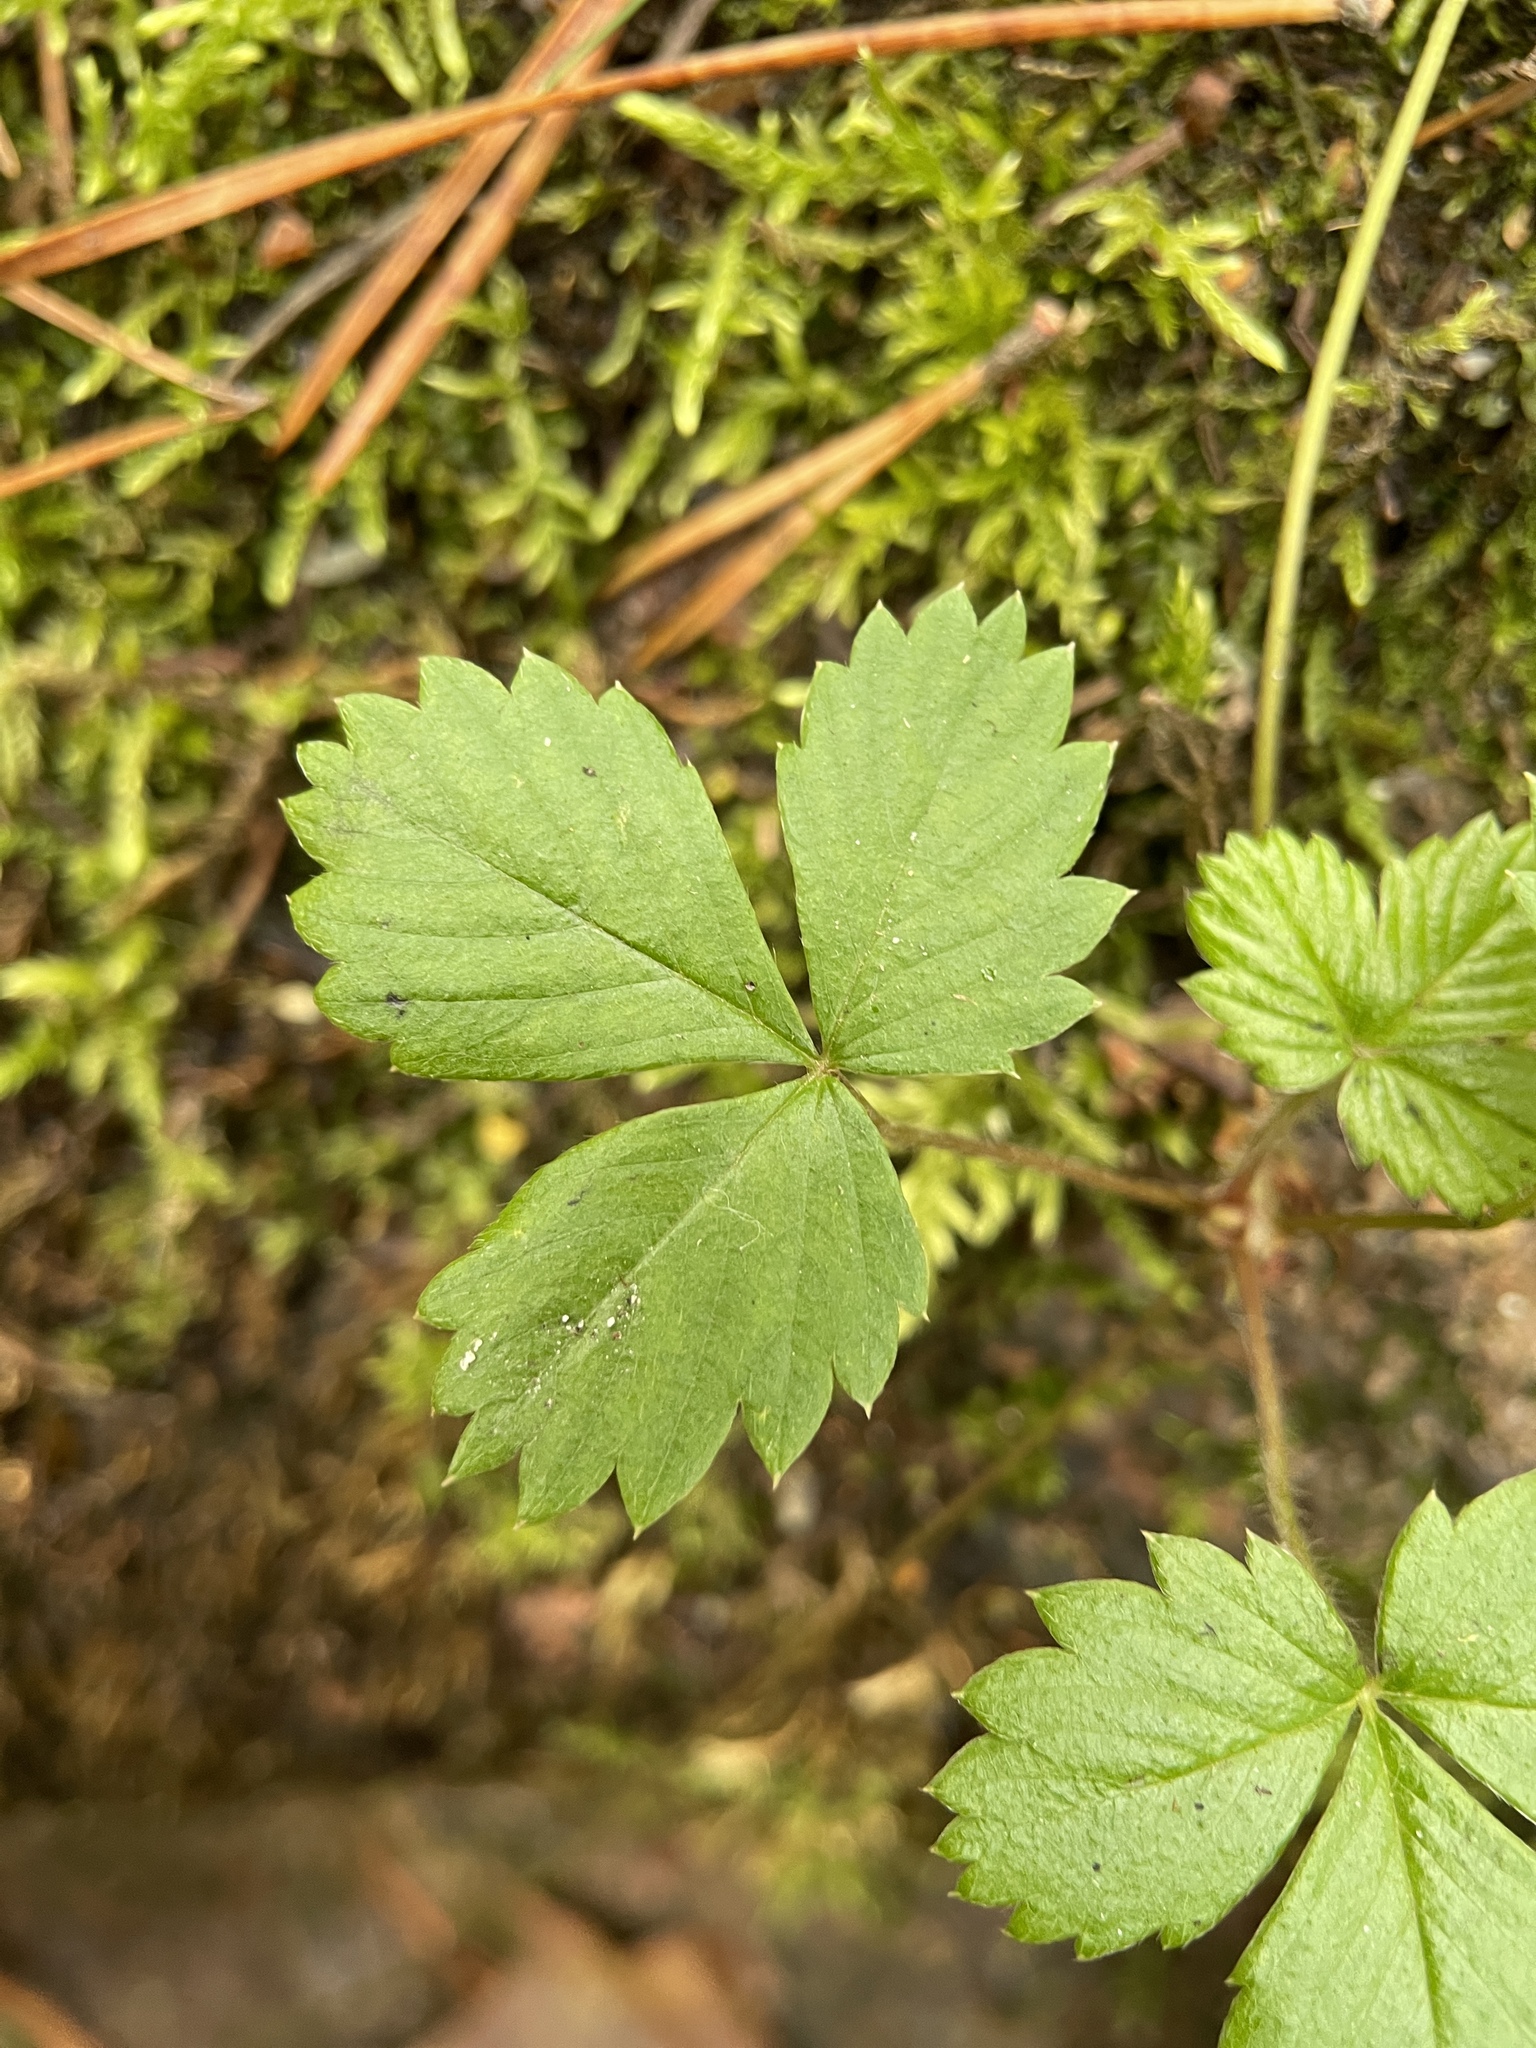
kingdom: Plantae
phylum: Tracheophyta
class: Magnoliopsida
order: Rosales
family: Rosaceae
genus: Fragaria
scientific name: Fragaria vesca
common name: Wild strawberry
